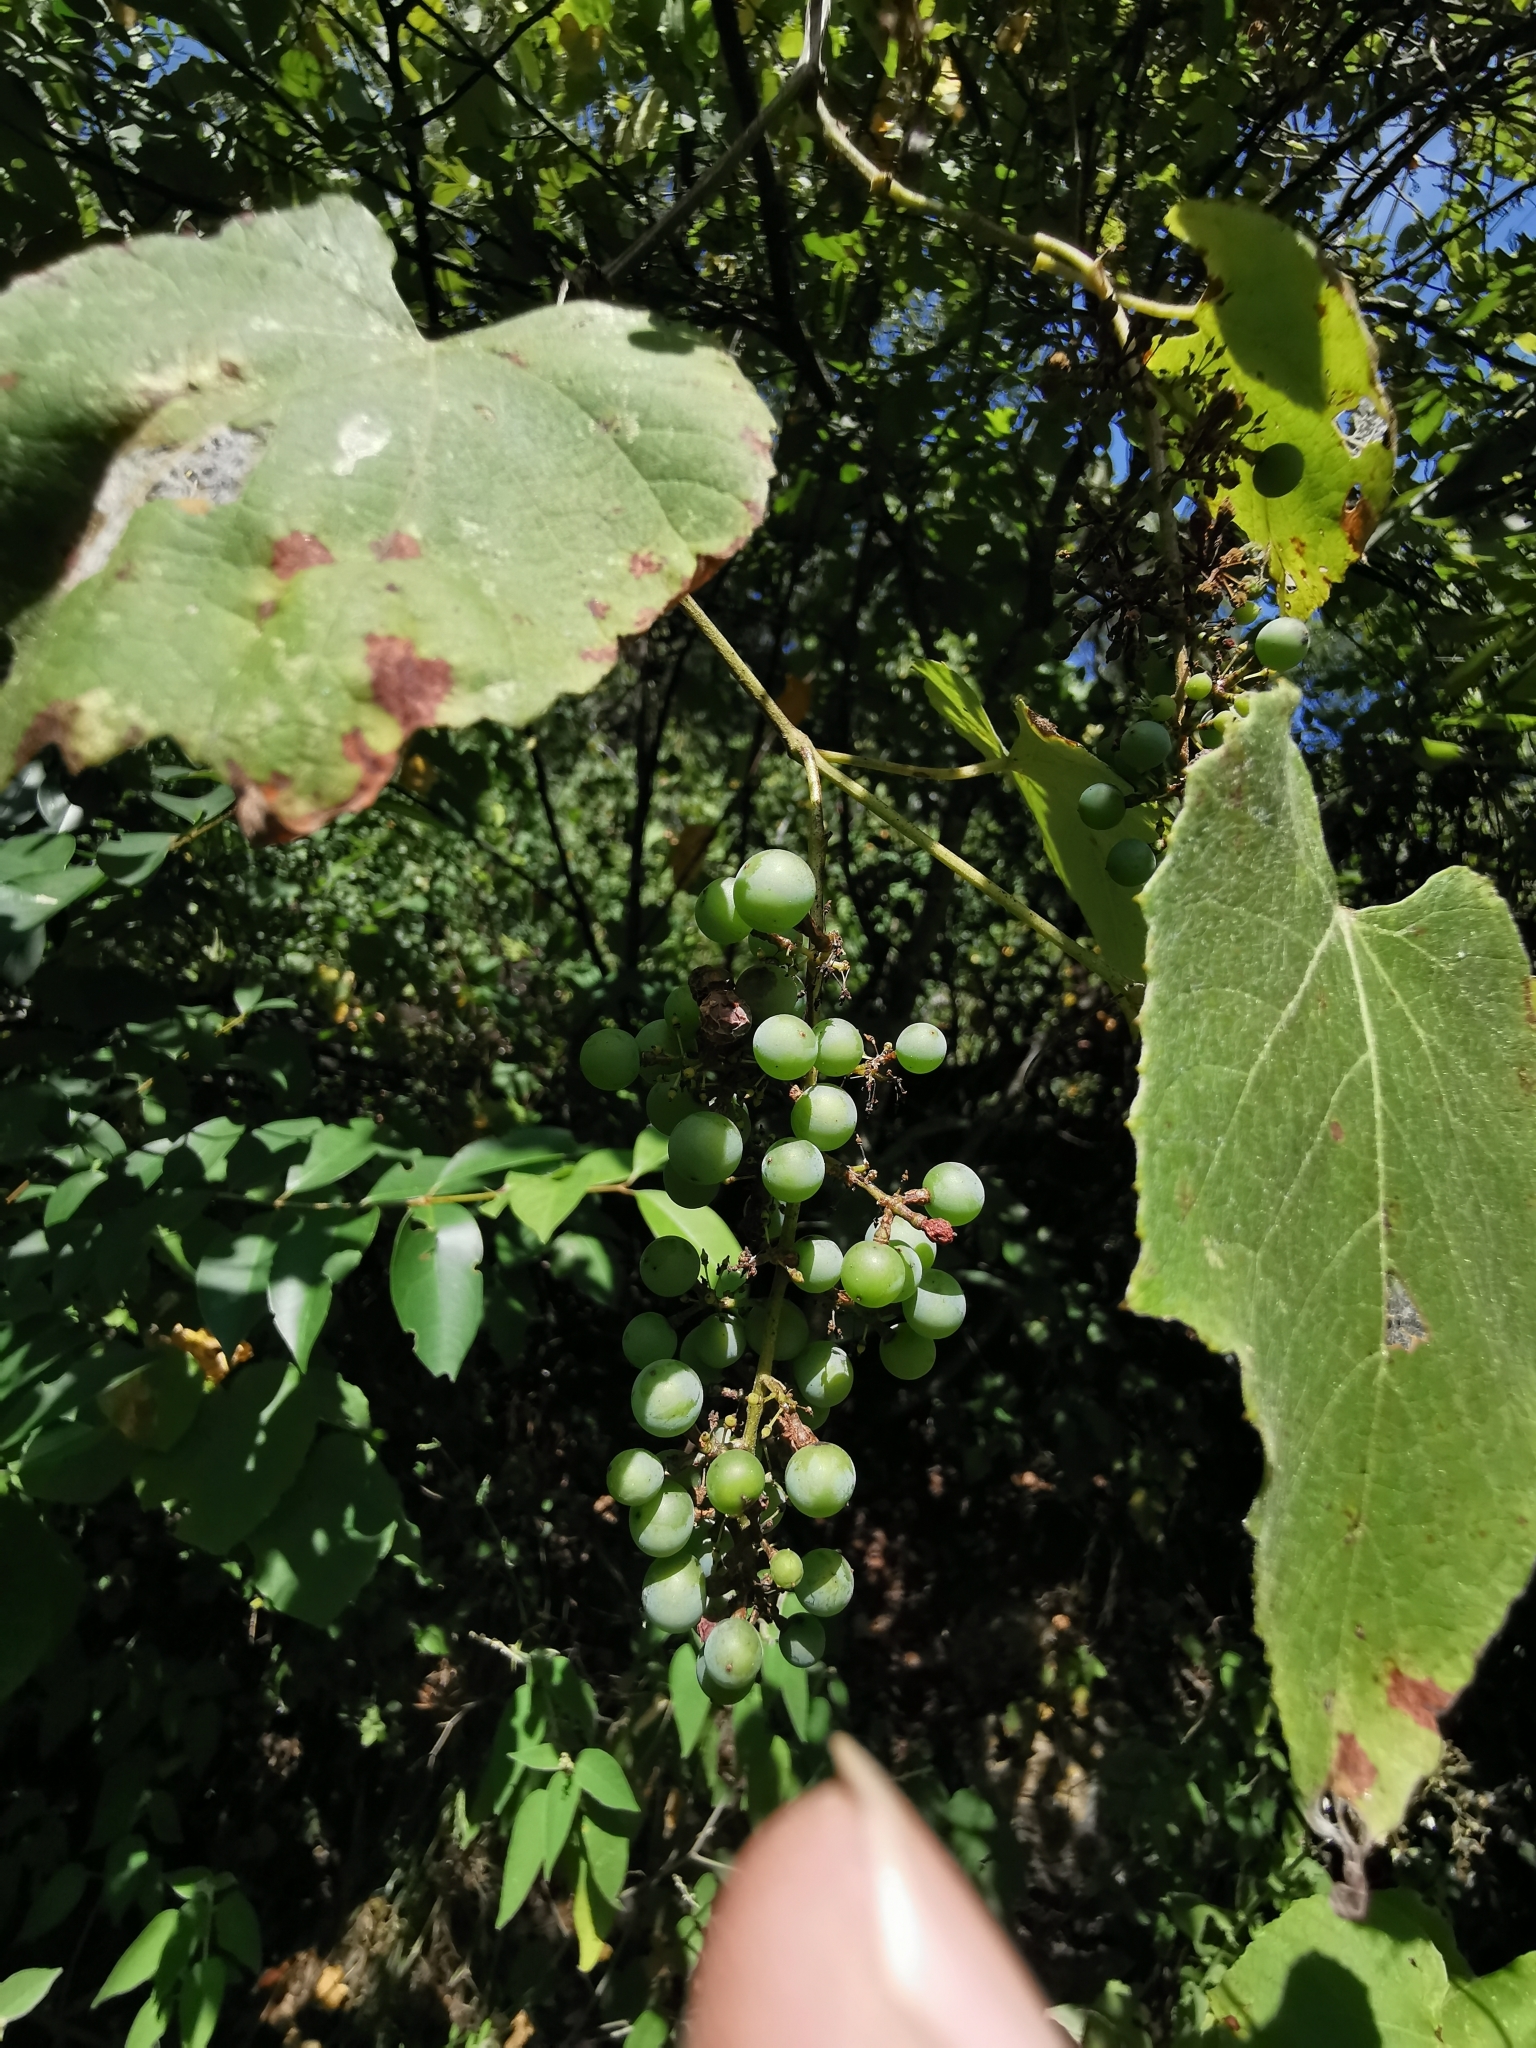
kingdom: Plantae
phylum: Tracheophyta
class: Magnoliopsida
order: Vitales
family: Vitaceae
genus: Vitis
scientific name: Vitis cinerea
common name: Ashy grape
